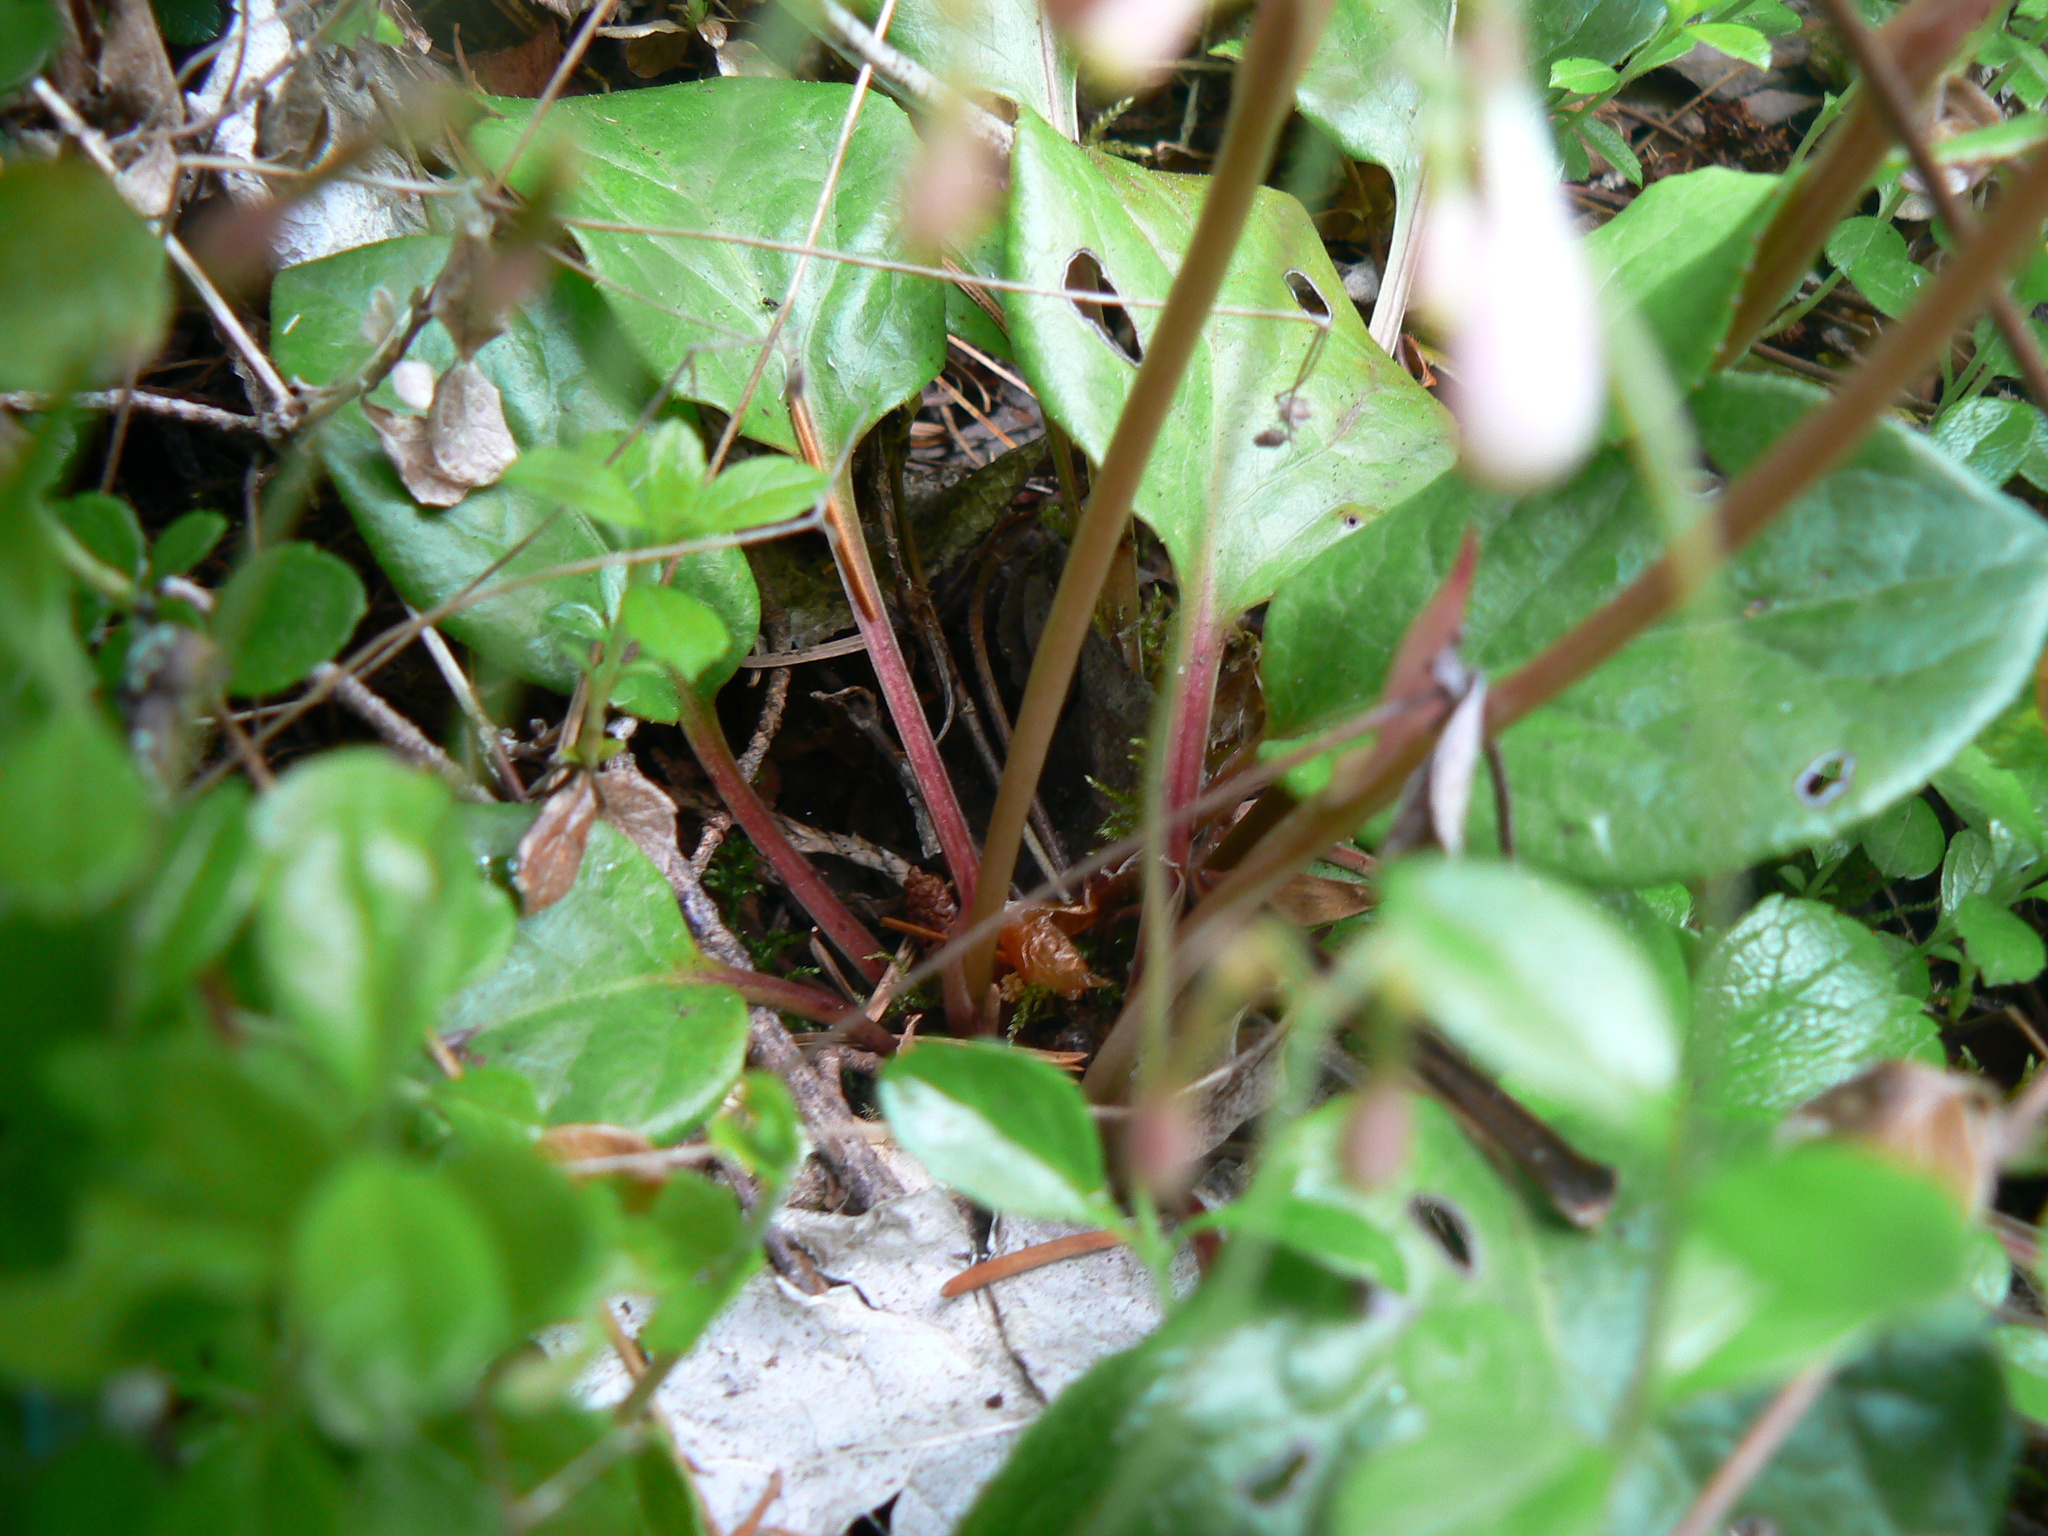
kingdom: Plantae
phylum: Tracheophyta
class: Magnoliopsida
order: Ericales
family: Ericaceae
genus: Pyrola
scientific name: Pyrola asarifolia
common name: Bog wintergreen
